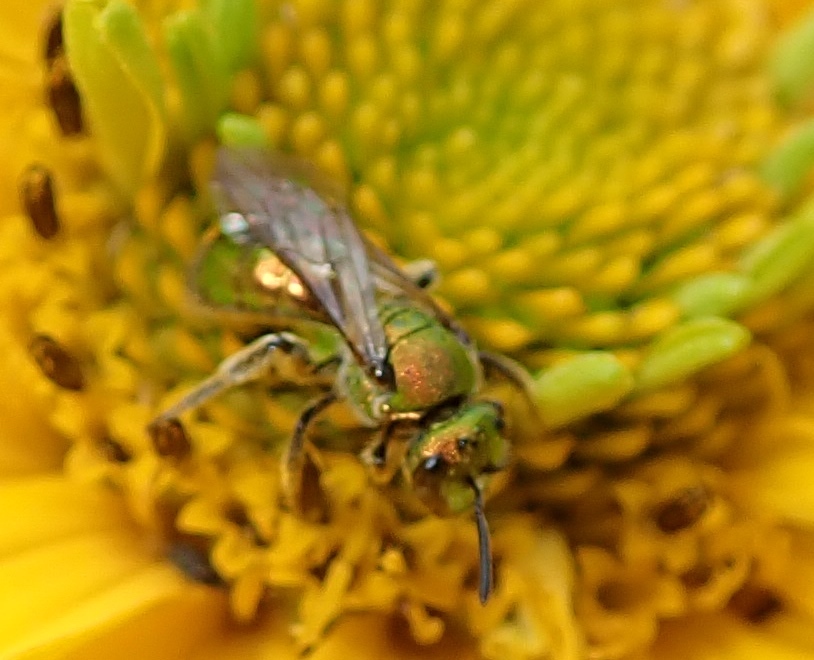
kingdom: Animalia
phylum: Arthropoda
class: Insecta
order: Hymenoptera
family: Halictidae
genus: Augochlora
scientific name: Augochlora pura
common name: Pure green sweat bee
